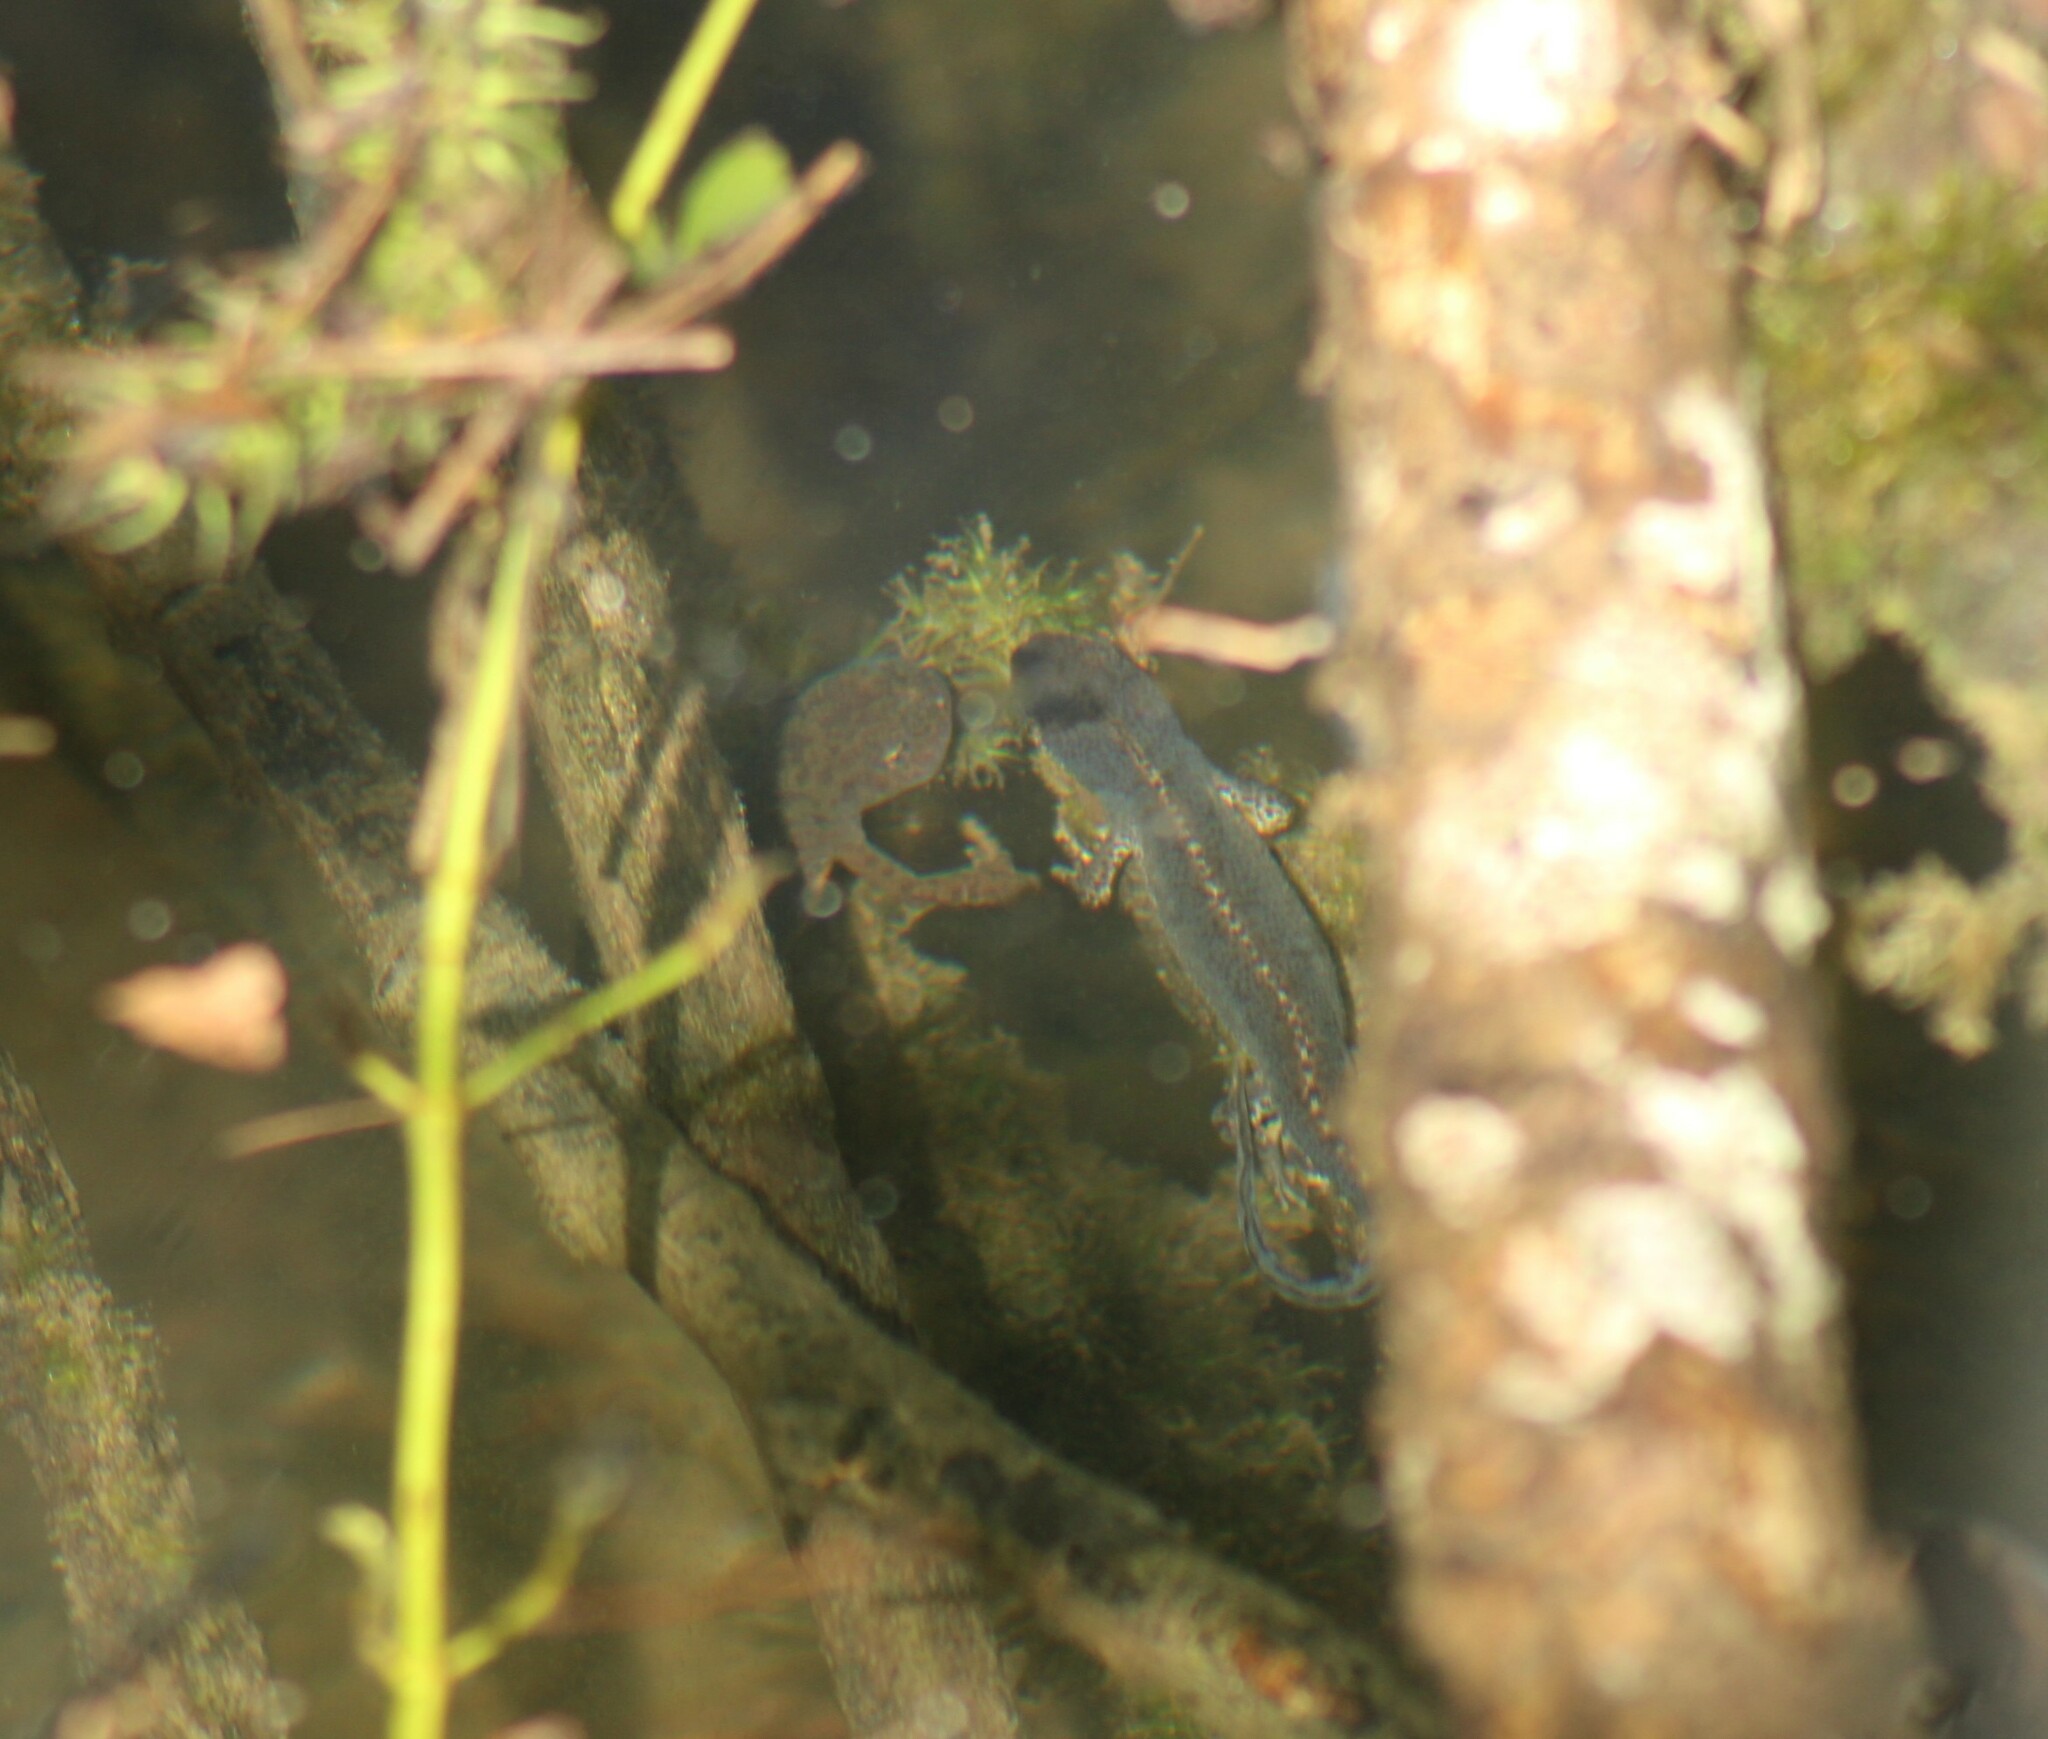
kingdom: Animalia
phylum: Chordata
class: Amphibia
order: Caudata
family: Salamandridae
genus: Ichthyosaura
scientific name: Ichthyosaura alpestris
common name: Alpine newt
